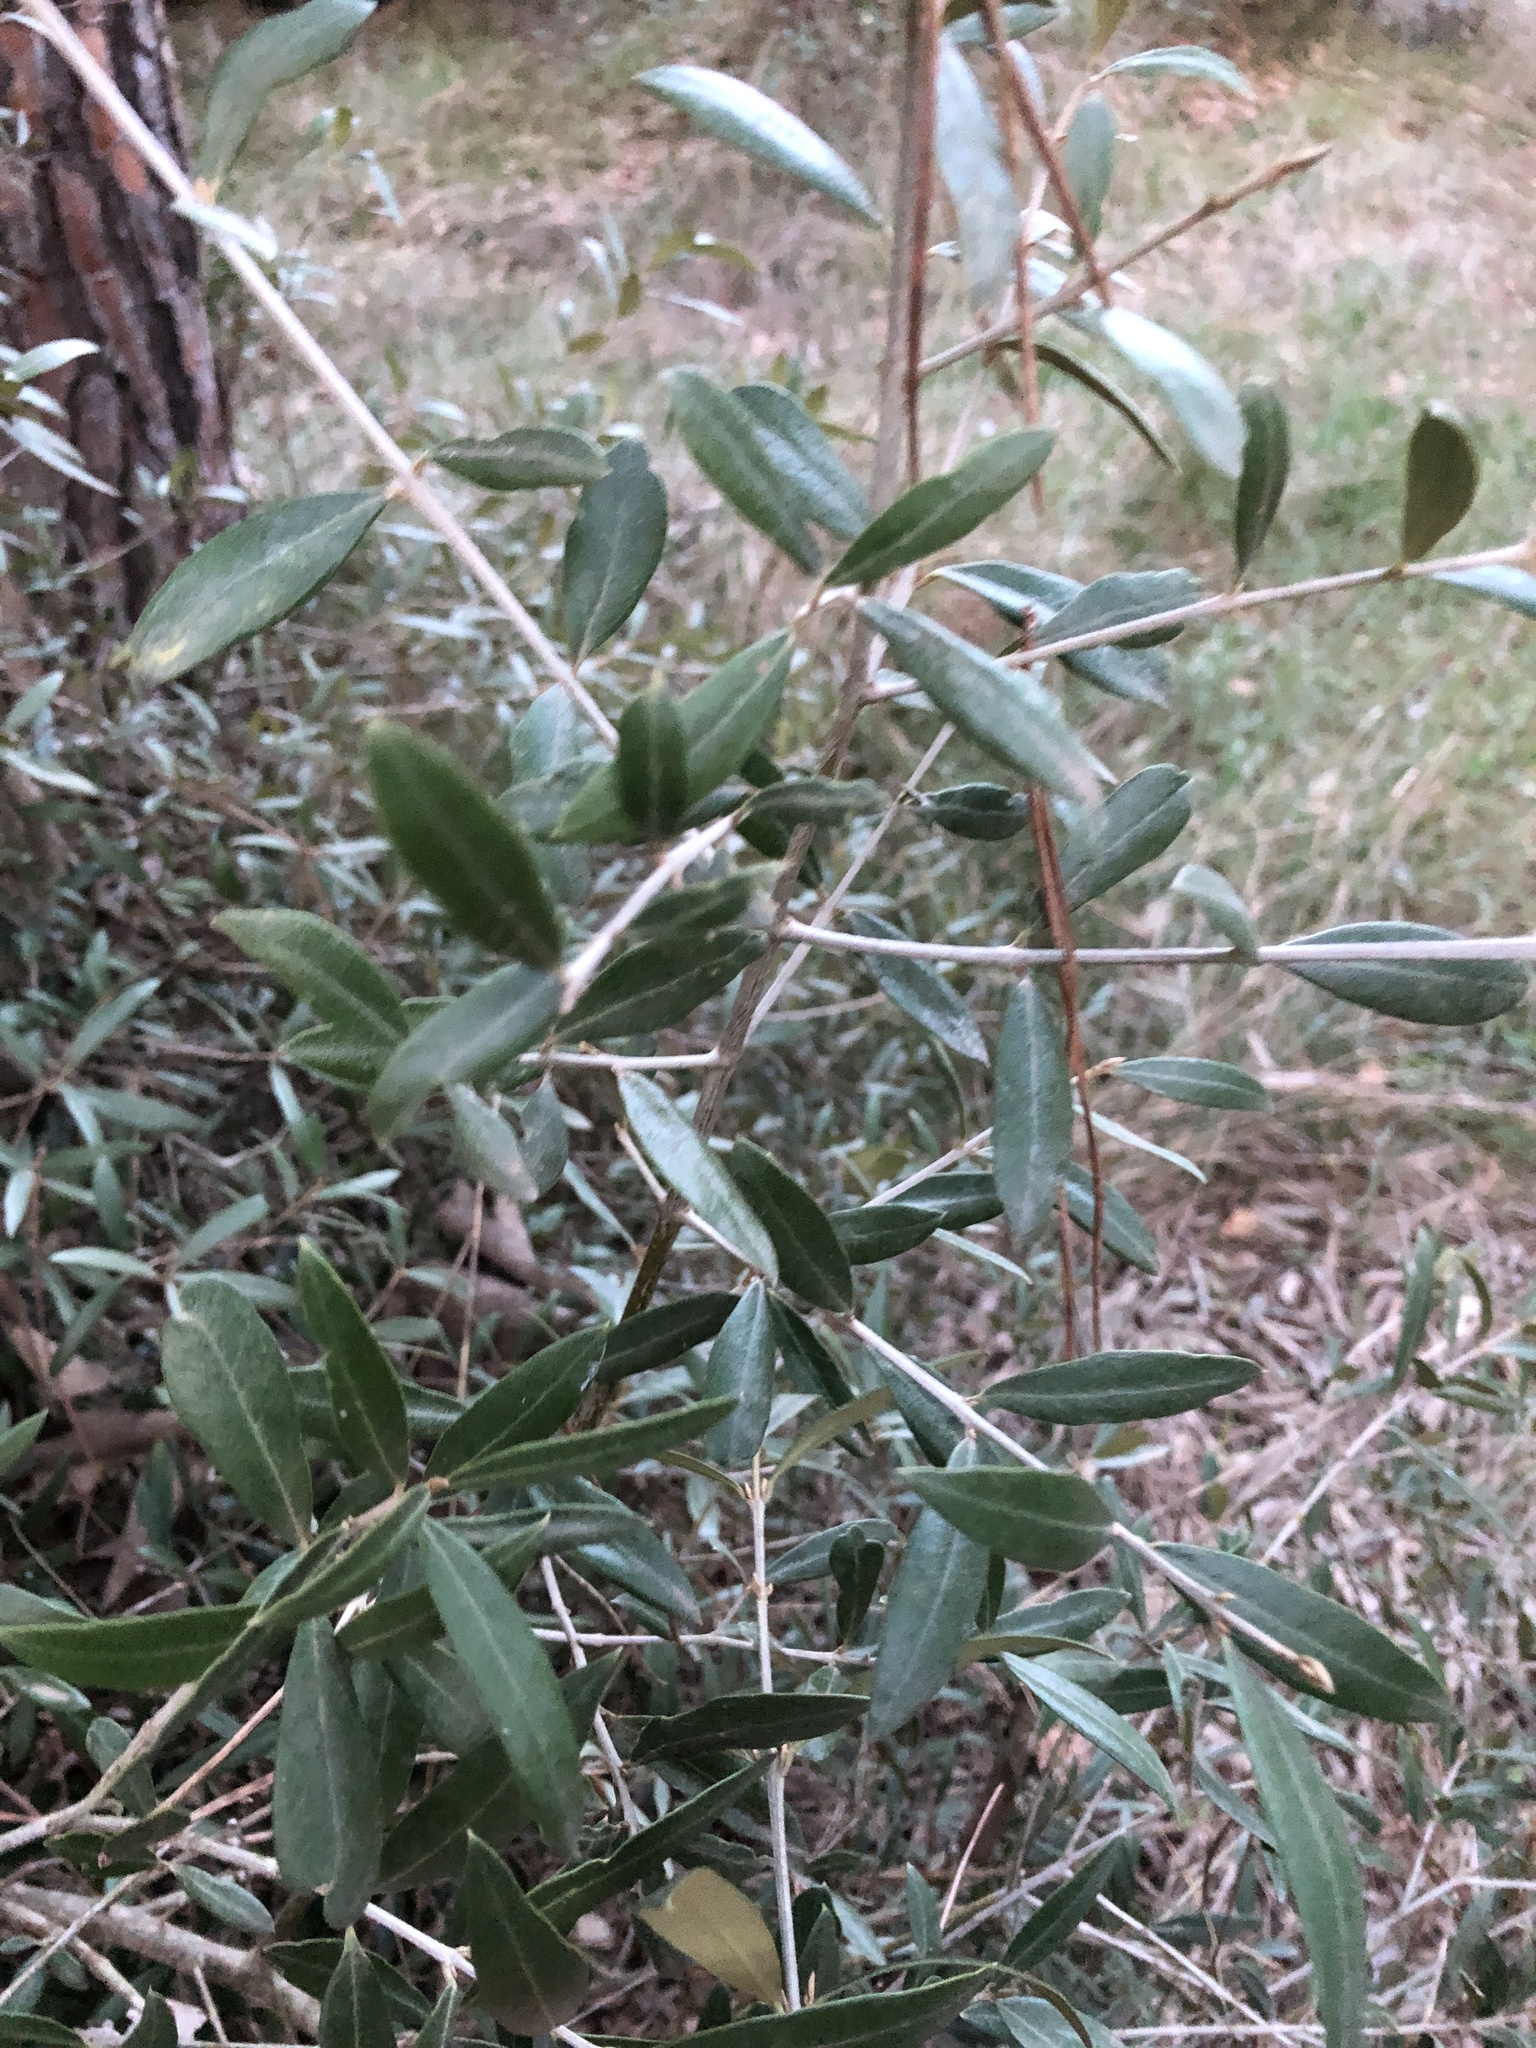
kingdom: Plantae
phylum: Tracheophyta
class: Magnoliopsida
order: Lamiales
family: Oleaceae
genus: Olea
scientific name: Olea europaea
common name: Olive
